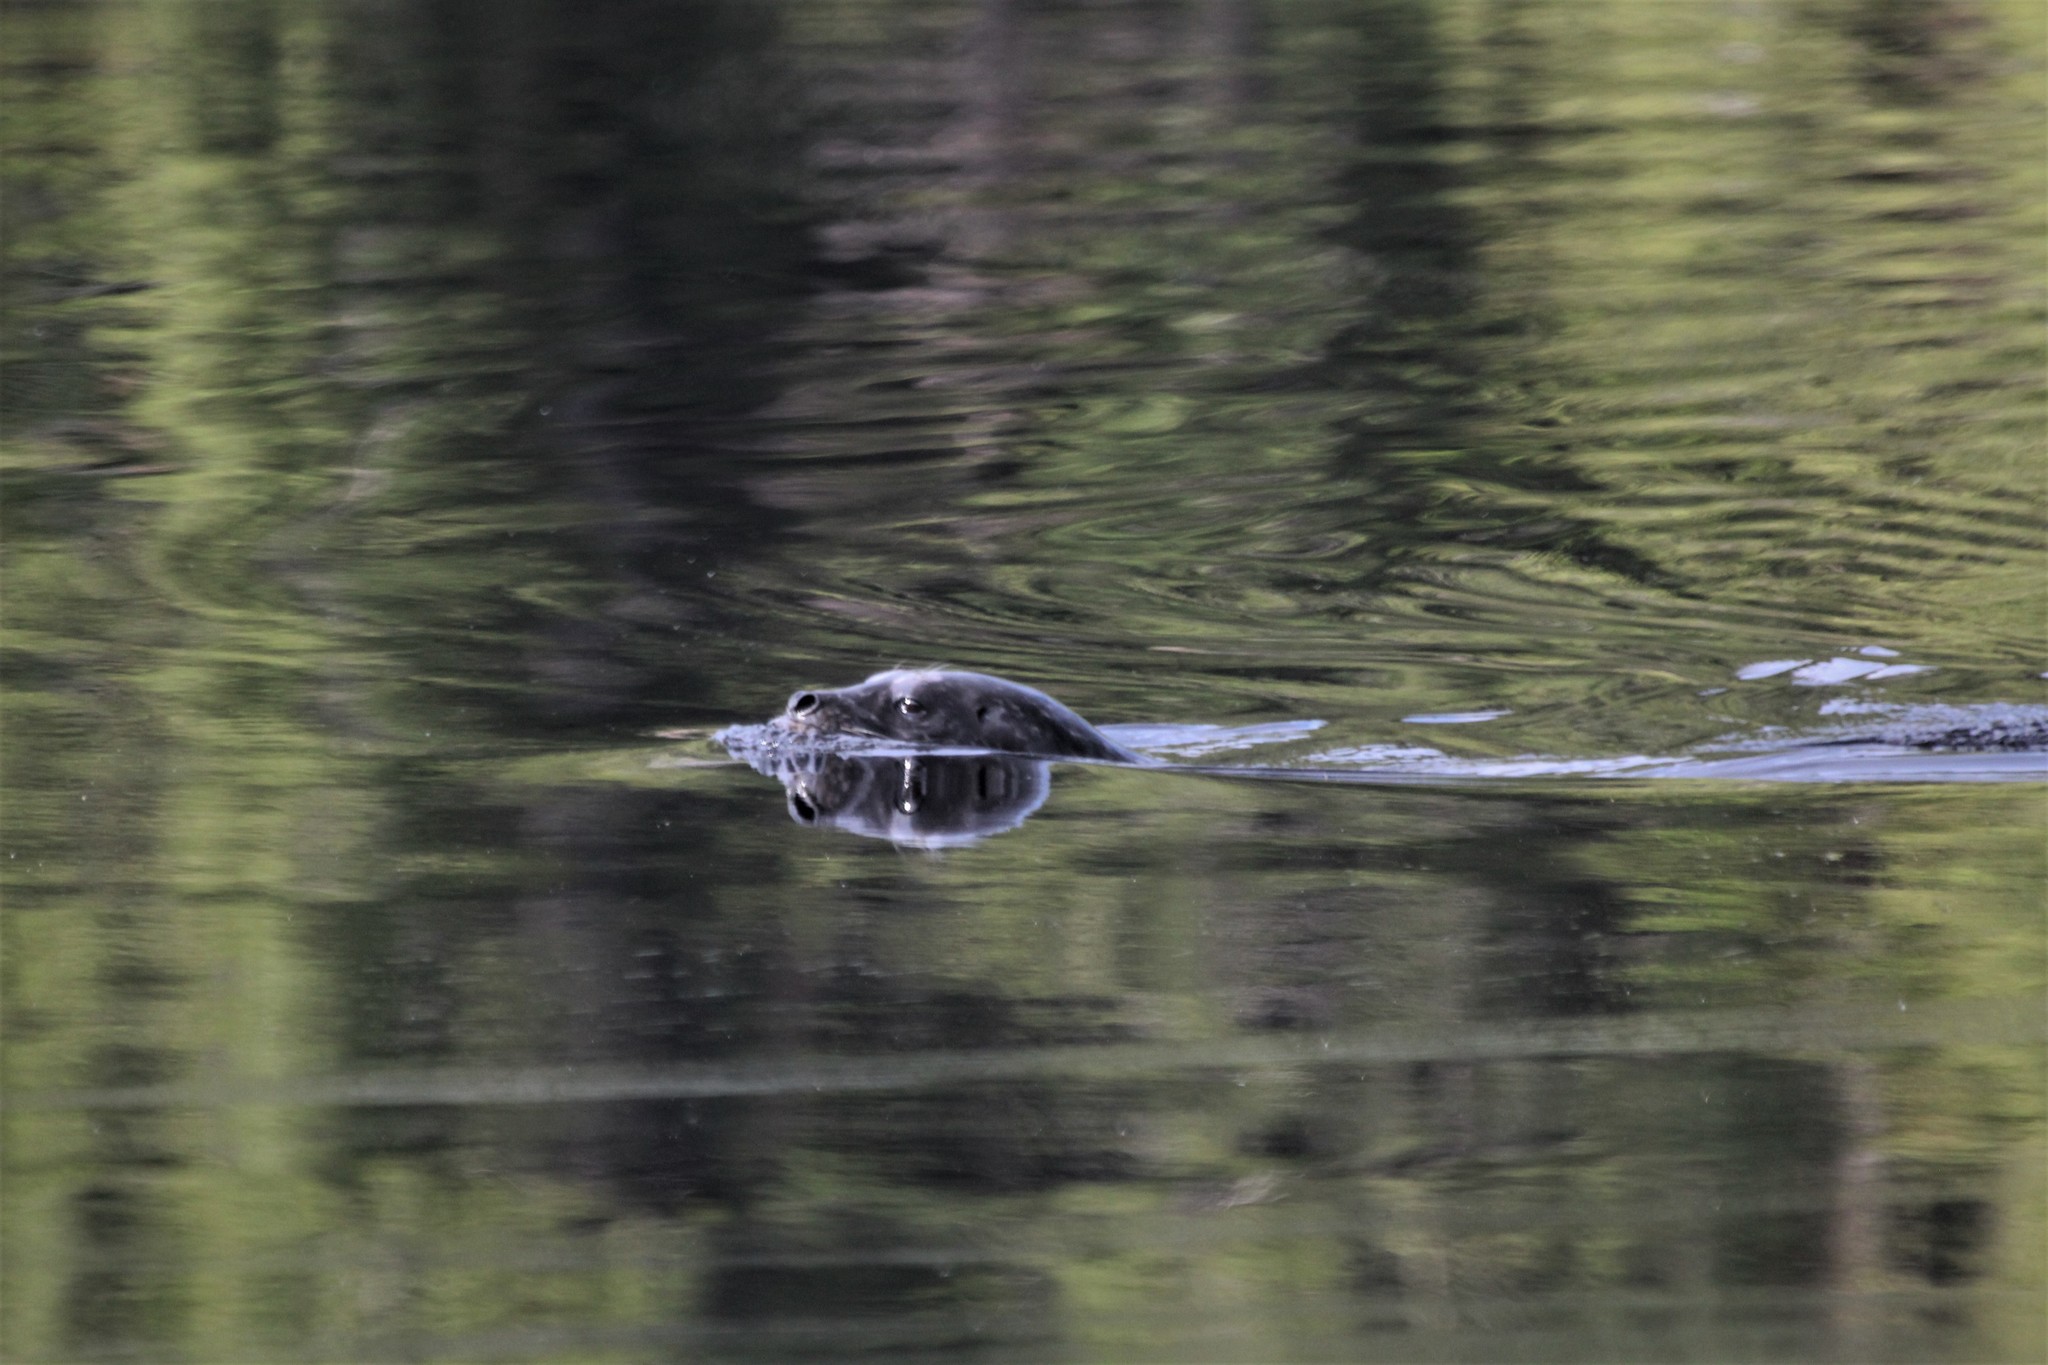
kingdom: Animalia
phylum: Chordata
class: Mammalia
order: Carnivora
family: Phocidae
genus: Phoca
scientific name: Phoca vitulina
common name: Harbor seal
